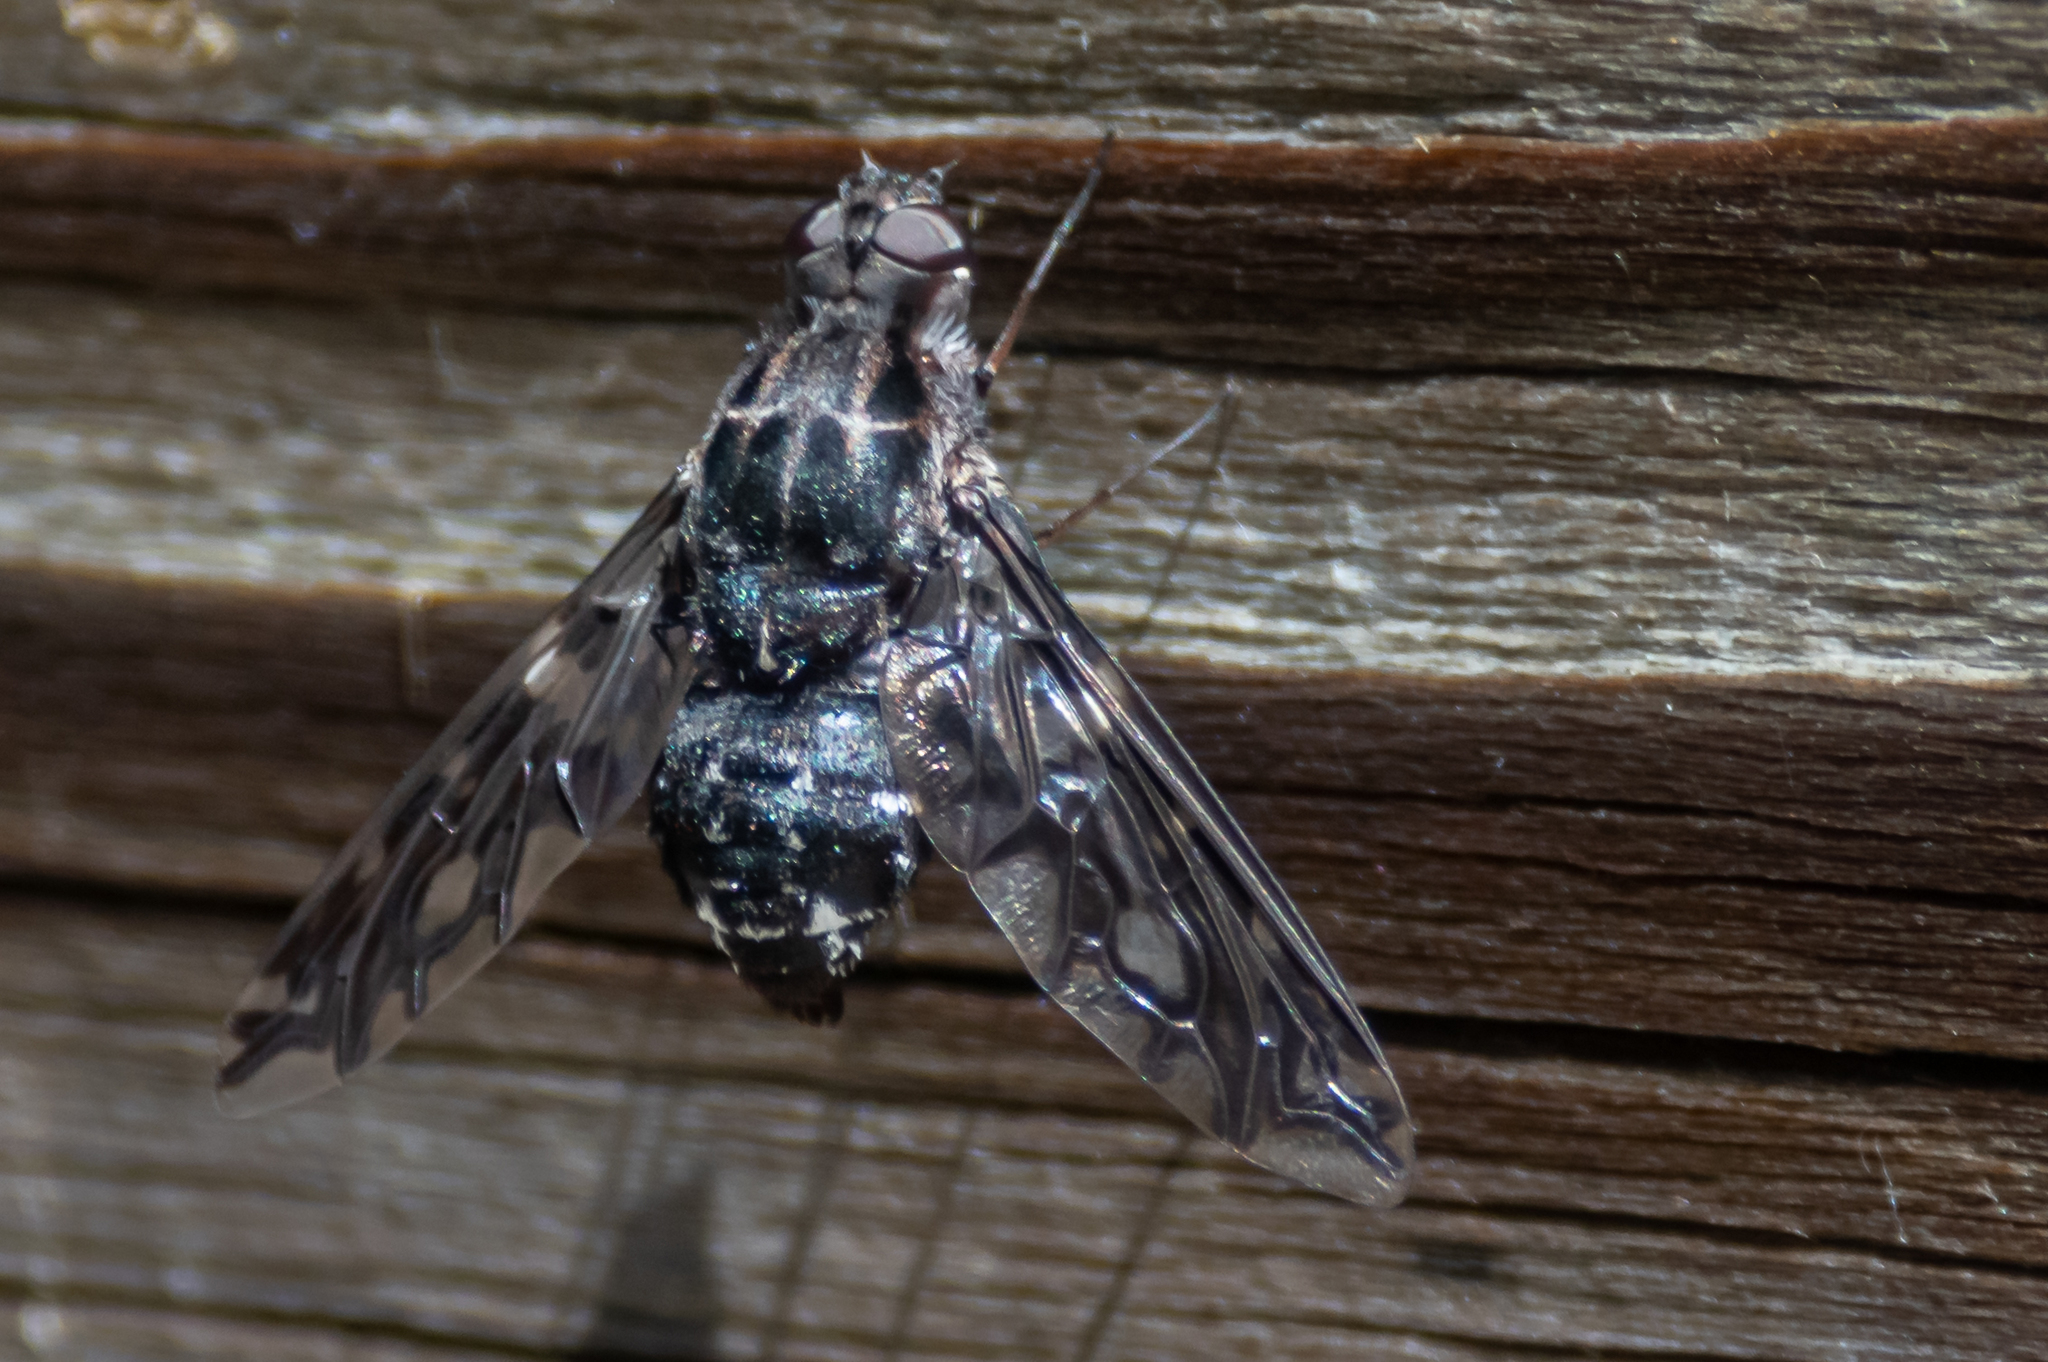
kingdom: Animalia
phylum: Arthropoda
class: Insecta
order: Diptera
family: Bombyliidae
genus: Xenox
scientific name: Xenox tigrinus
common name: Tiger bee fly
